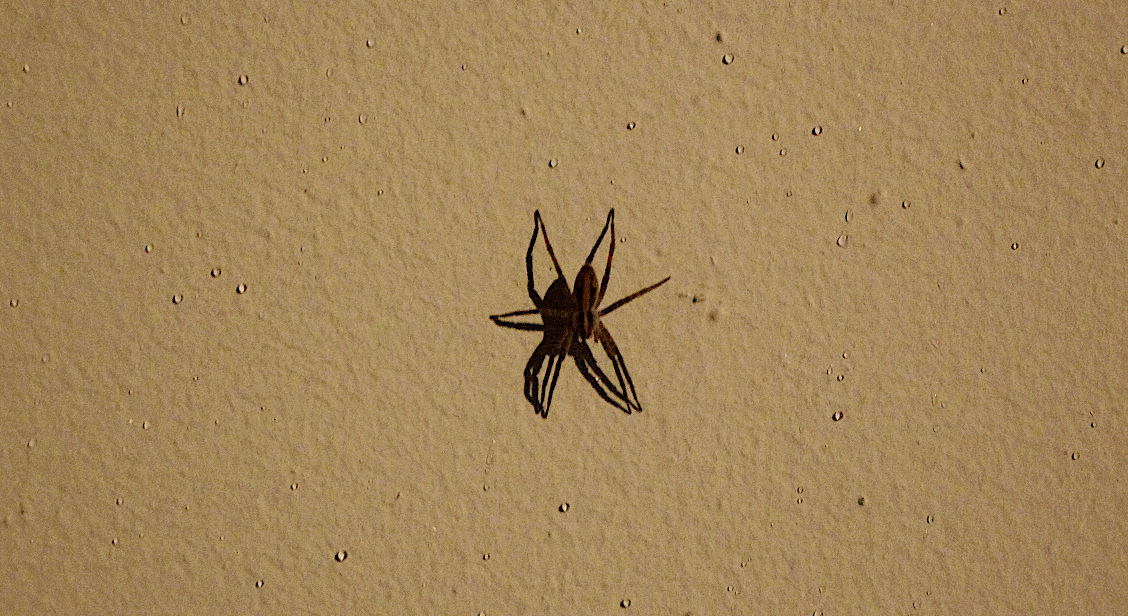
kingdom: Animalia
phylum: Arthropoda
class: Arachnida
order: Araneae
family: Pisauridae
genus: Pisaura
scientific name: Pisaura mirabilis
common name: Tent spider
